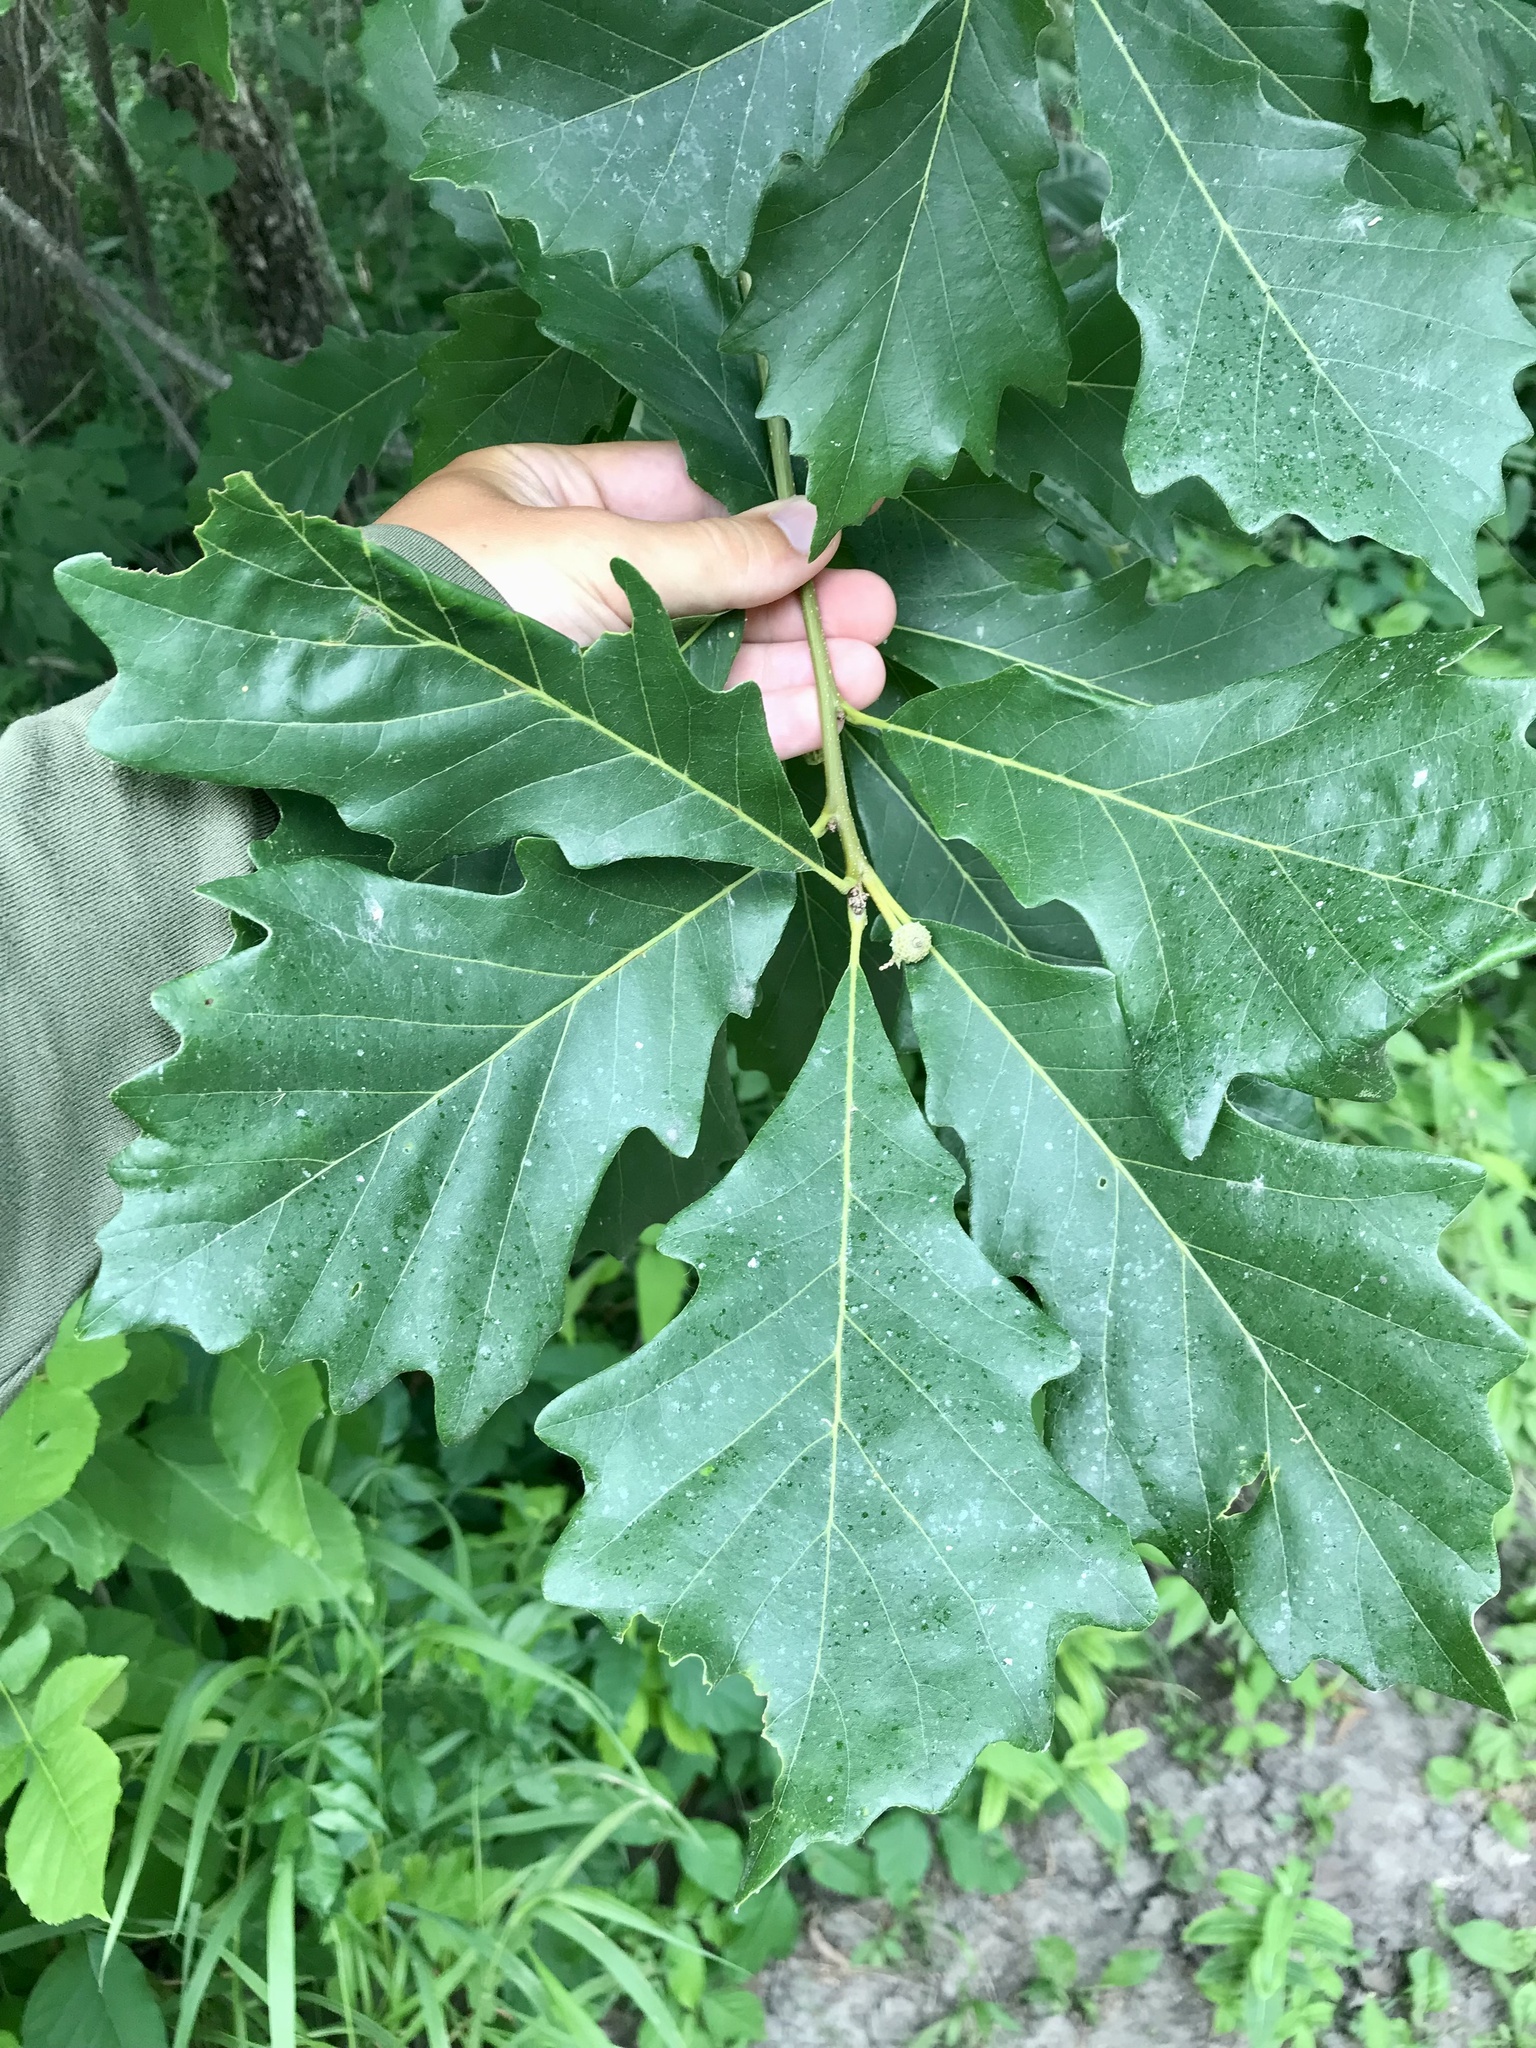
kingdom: Plantae
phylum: Tracheophyta
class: Magnoliopsida
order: Fagales
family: Fagaceae
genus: Quercus
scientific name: Quercus bicolor
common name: Swamp white oak
